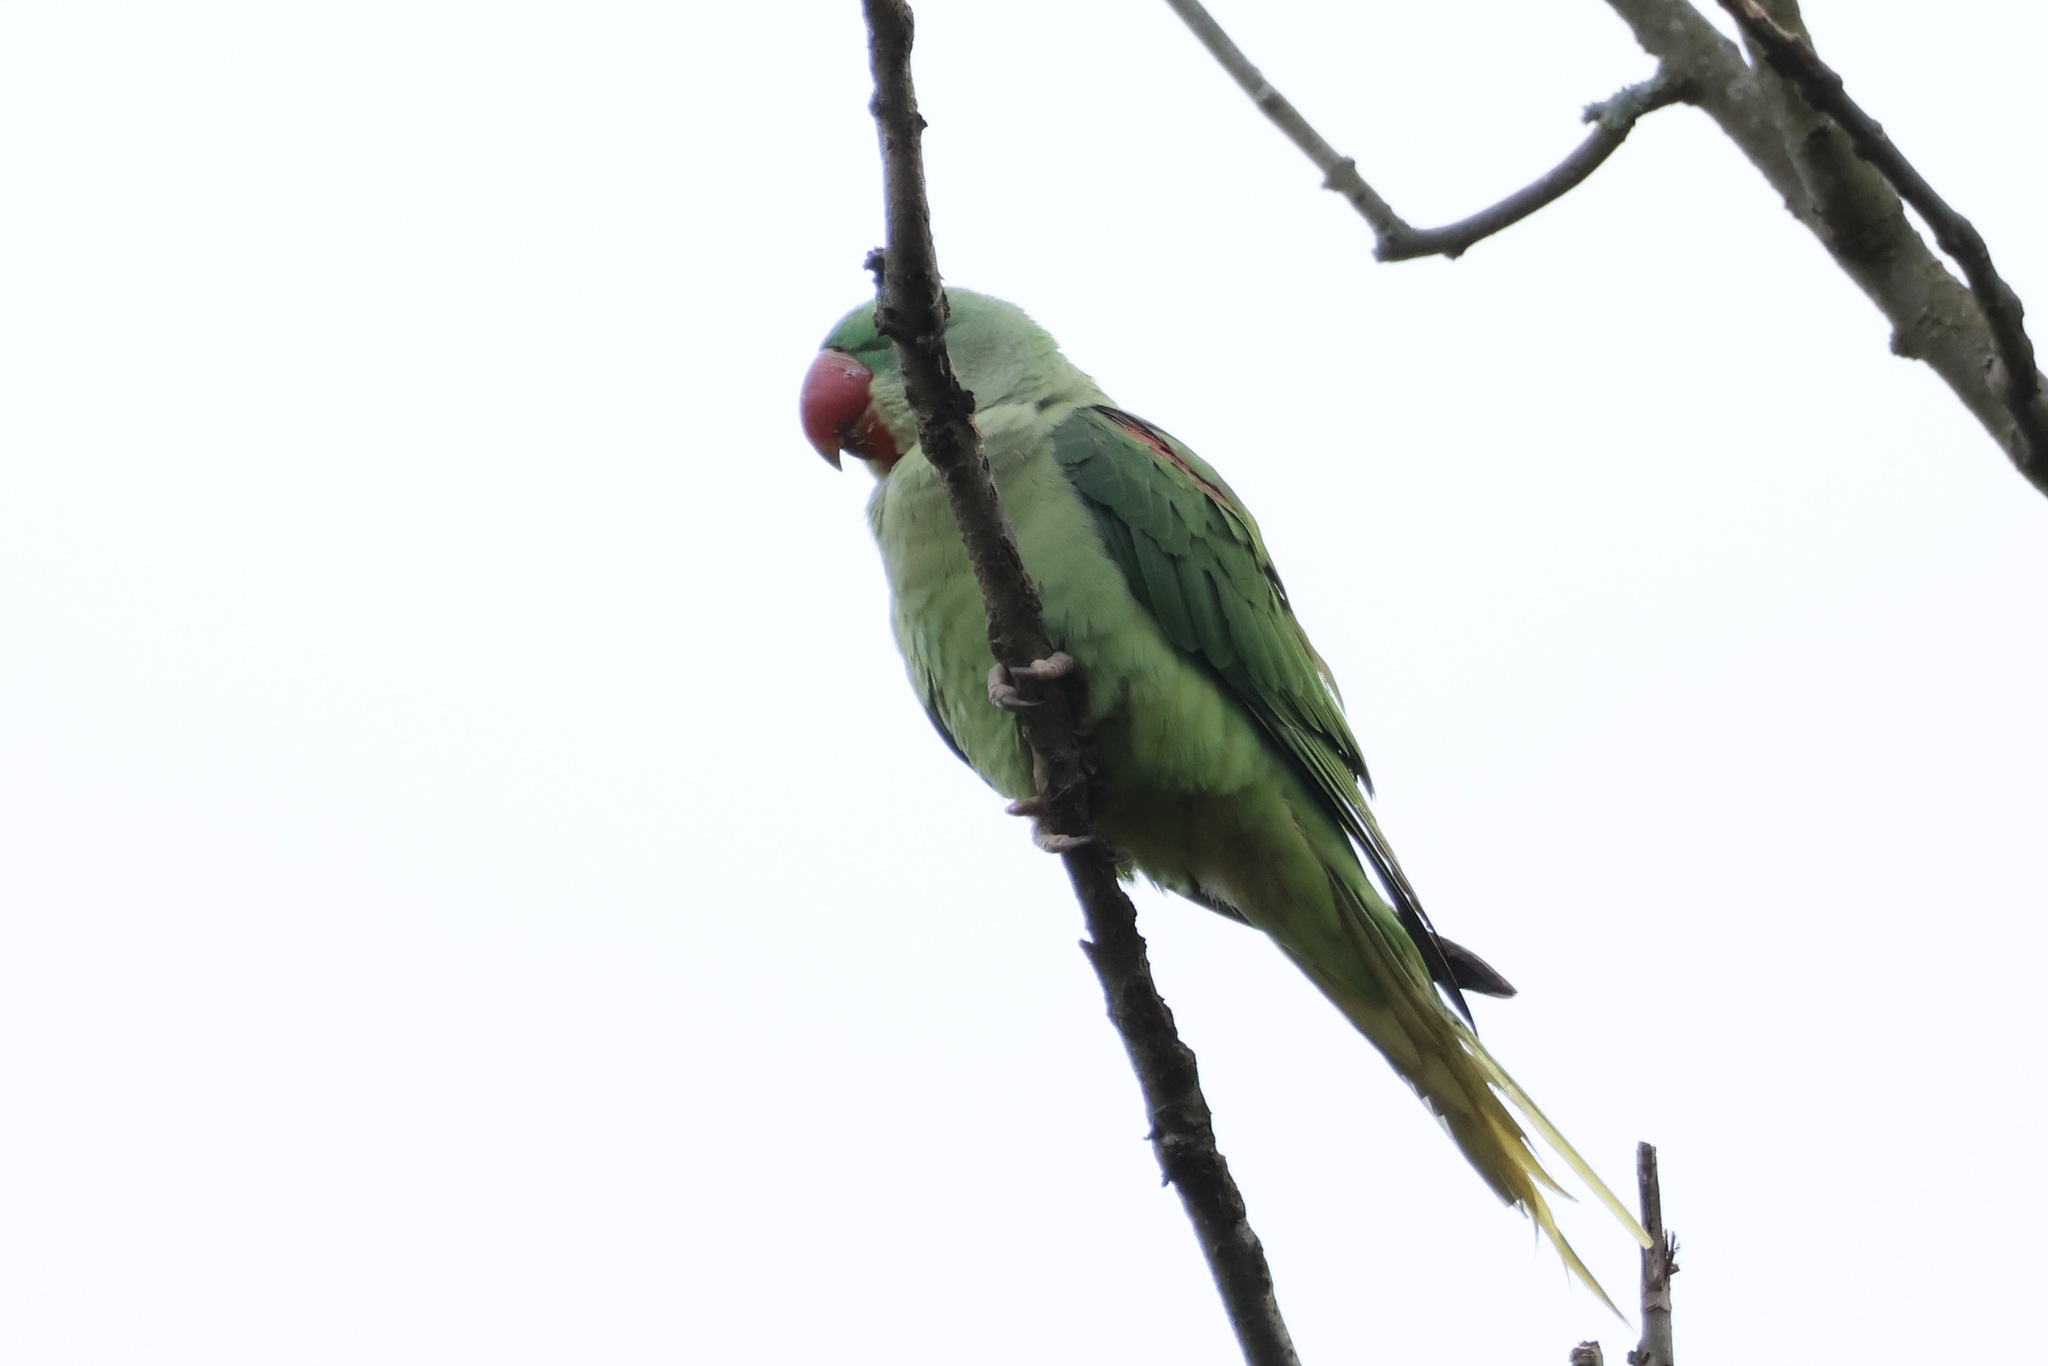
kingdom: Animalia
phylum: Chordata
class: Aves
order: Psittaciformes
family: Psittacidae
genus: Psittacula
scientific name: Psittacula eupatria
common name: Alexandrine parakeet
